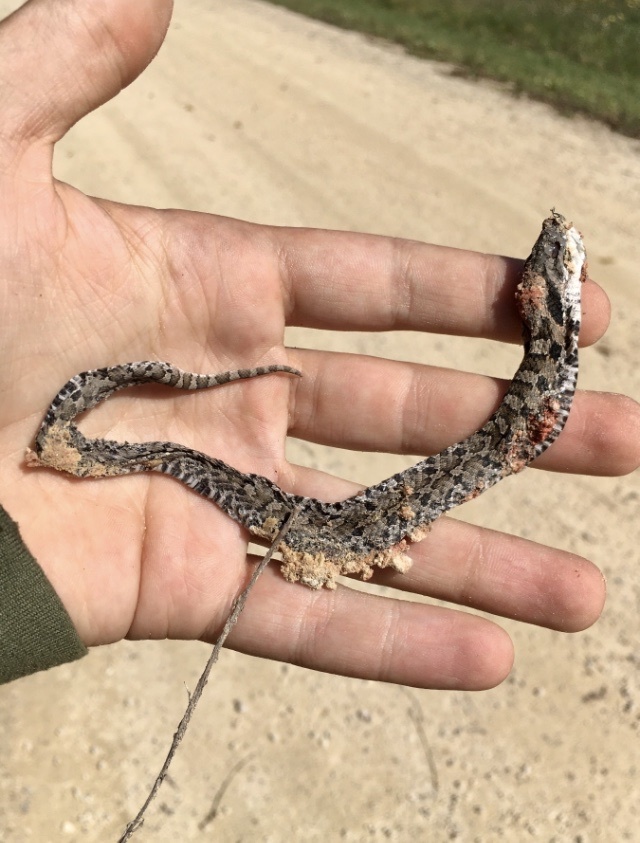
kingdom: Animalia
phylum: Chordata
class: Squamata
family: Colubridae
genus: Heterodon
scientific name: Heterodon platirhinos
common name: Eastern hognose snake
